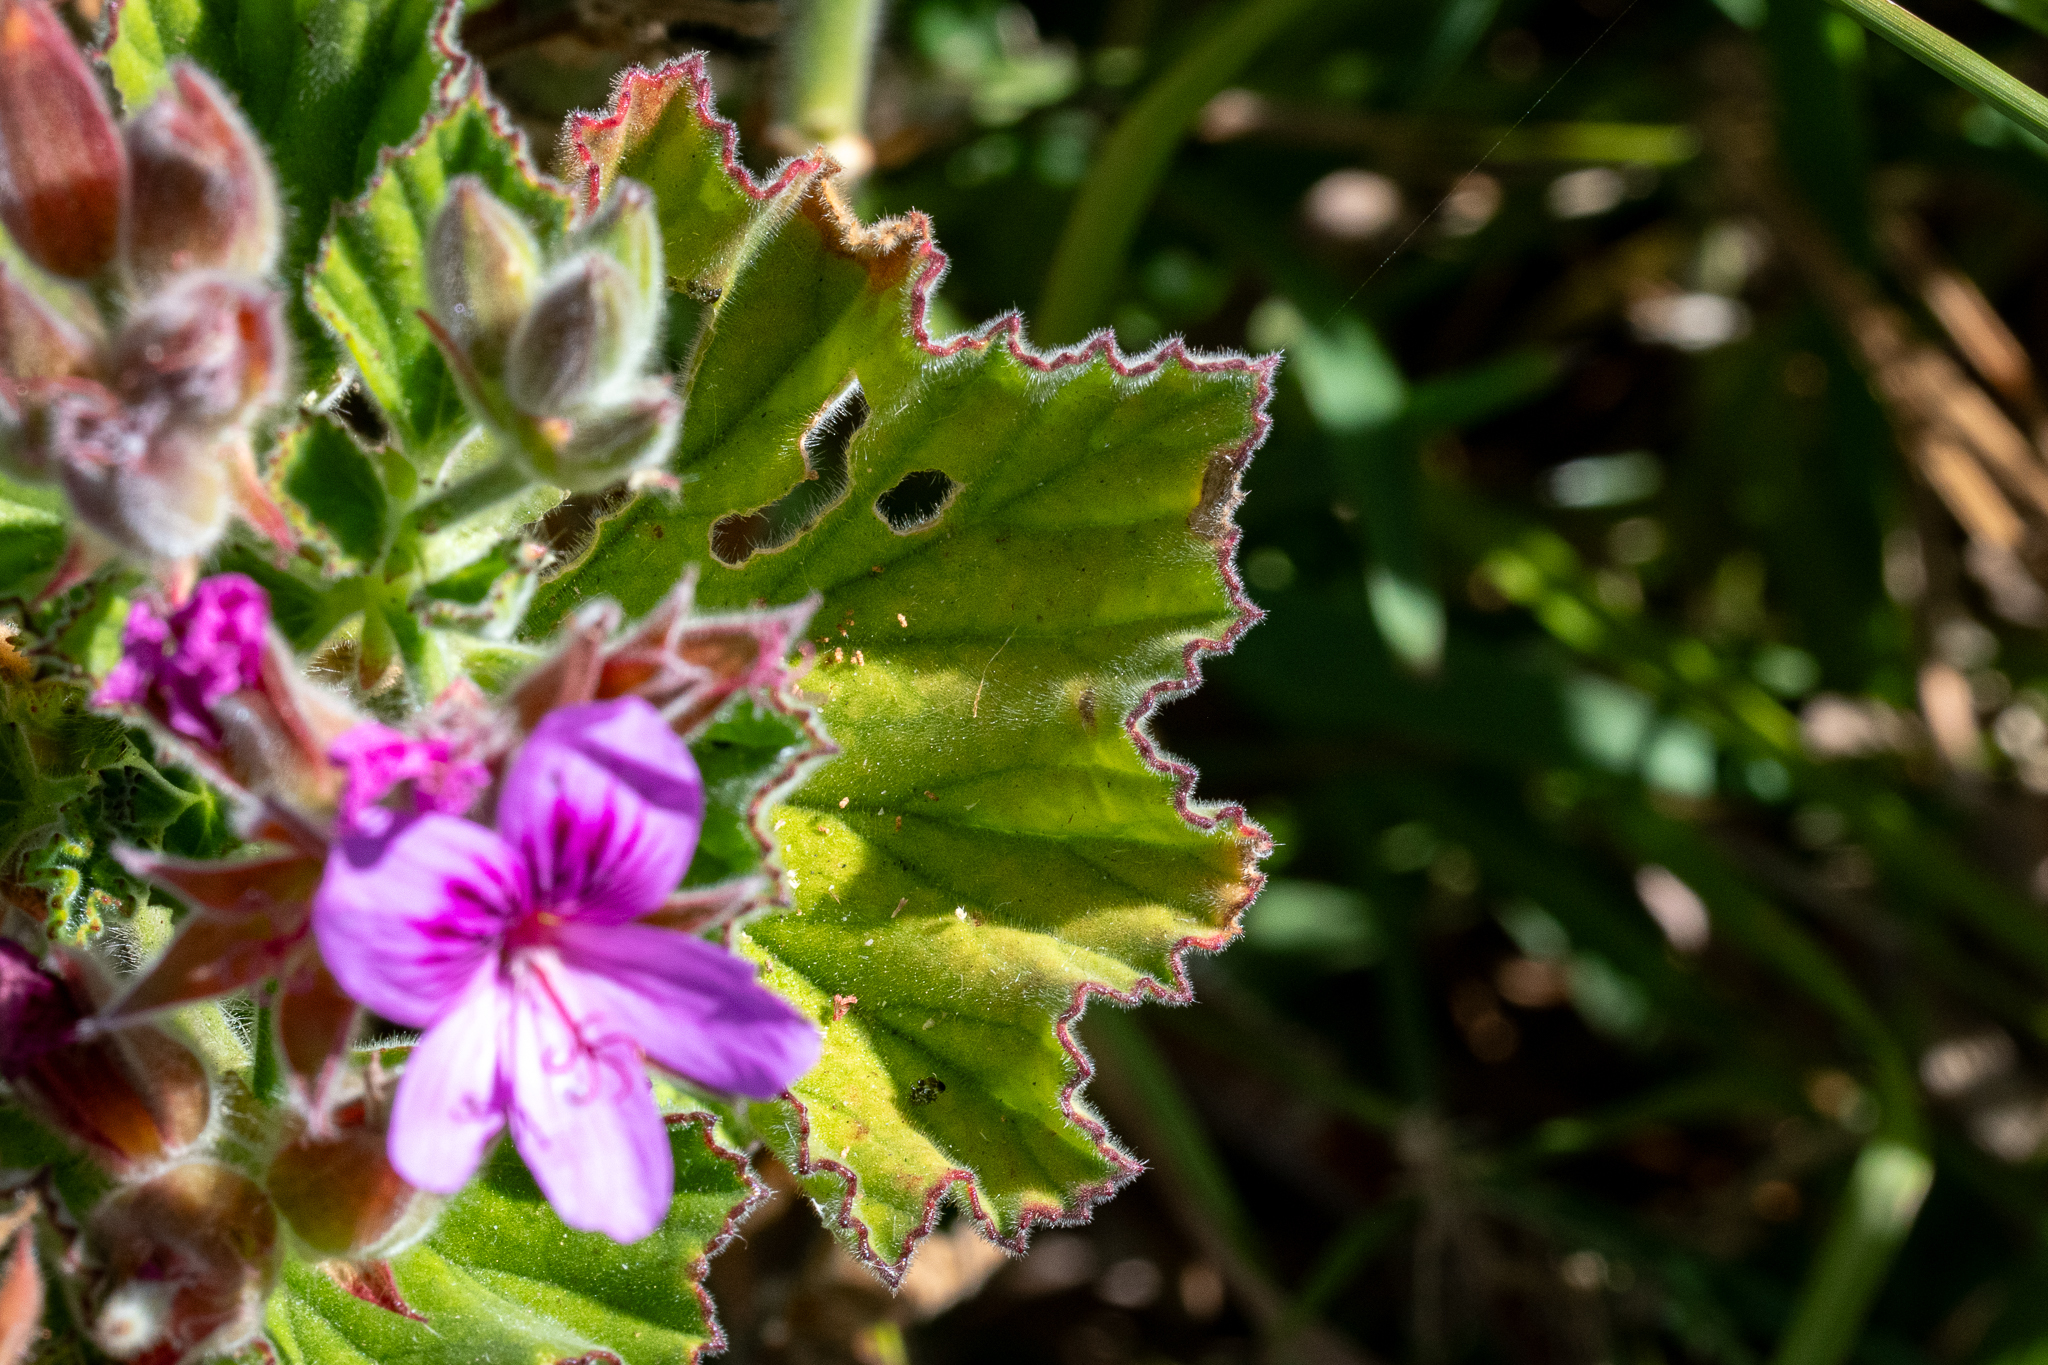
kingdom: Plantae
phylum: Tracheophyta
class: Magnoliopsida
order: Geraniales
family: Geraniaceae
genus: Pelargonium
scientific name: Pelargonium cucullatum
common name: Tree pelargonium
